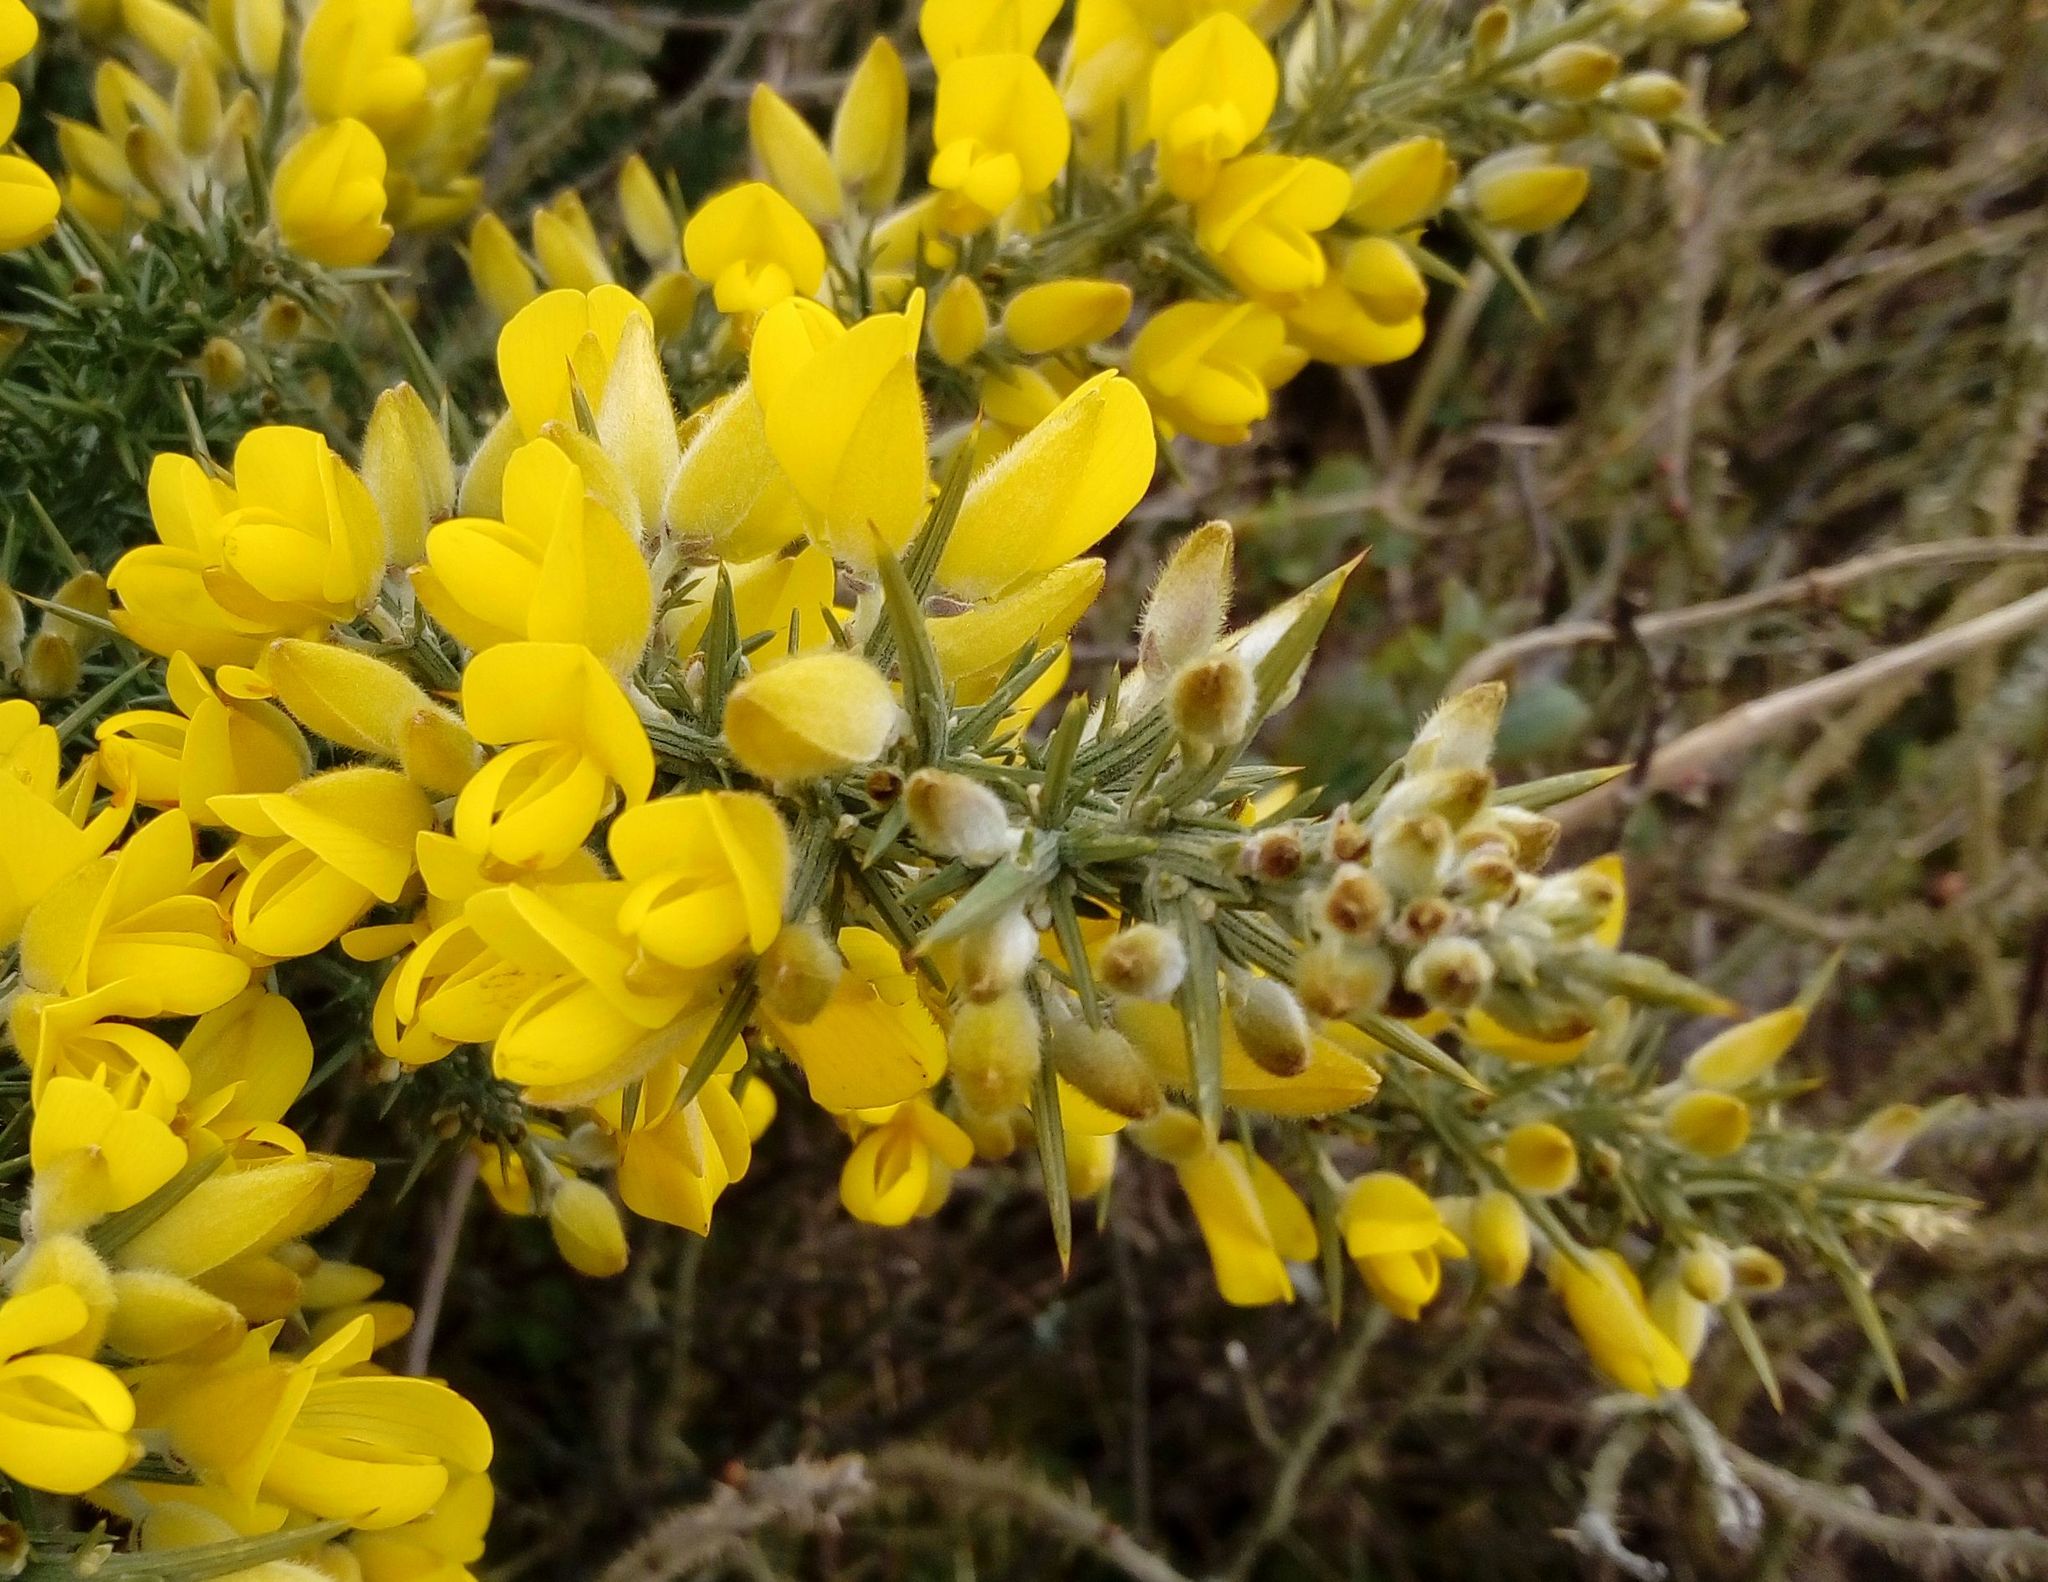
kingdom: Plantae
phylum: Tracheophyta
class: Magnoliopsida
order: Fabales
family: Fabaceae
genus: Ulex
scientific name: Ulex europaeus
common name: Common gorse
